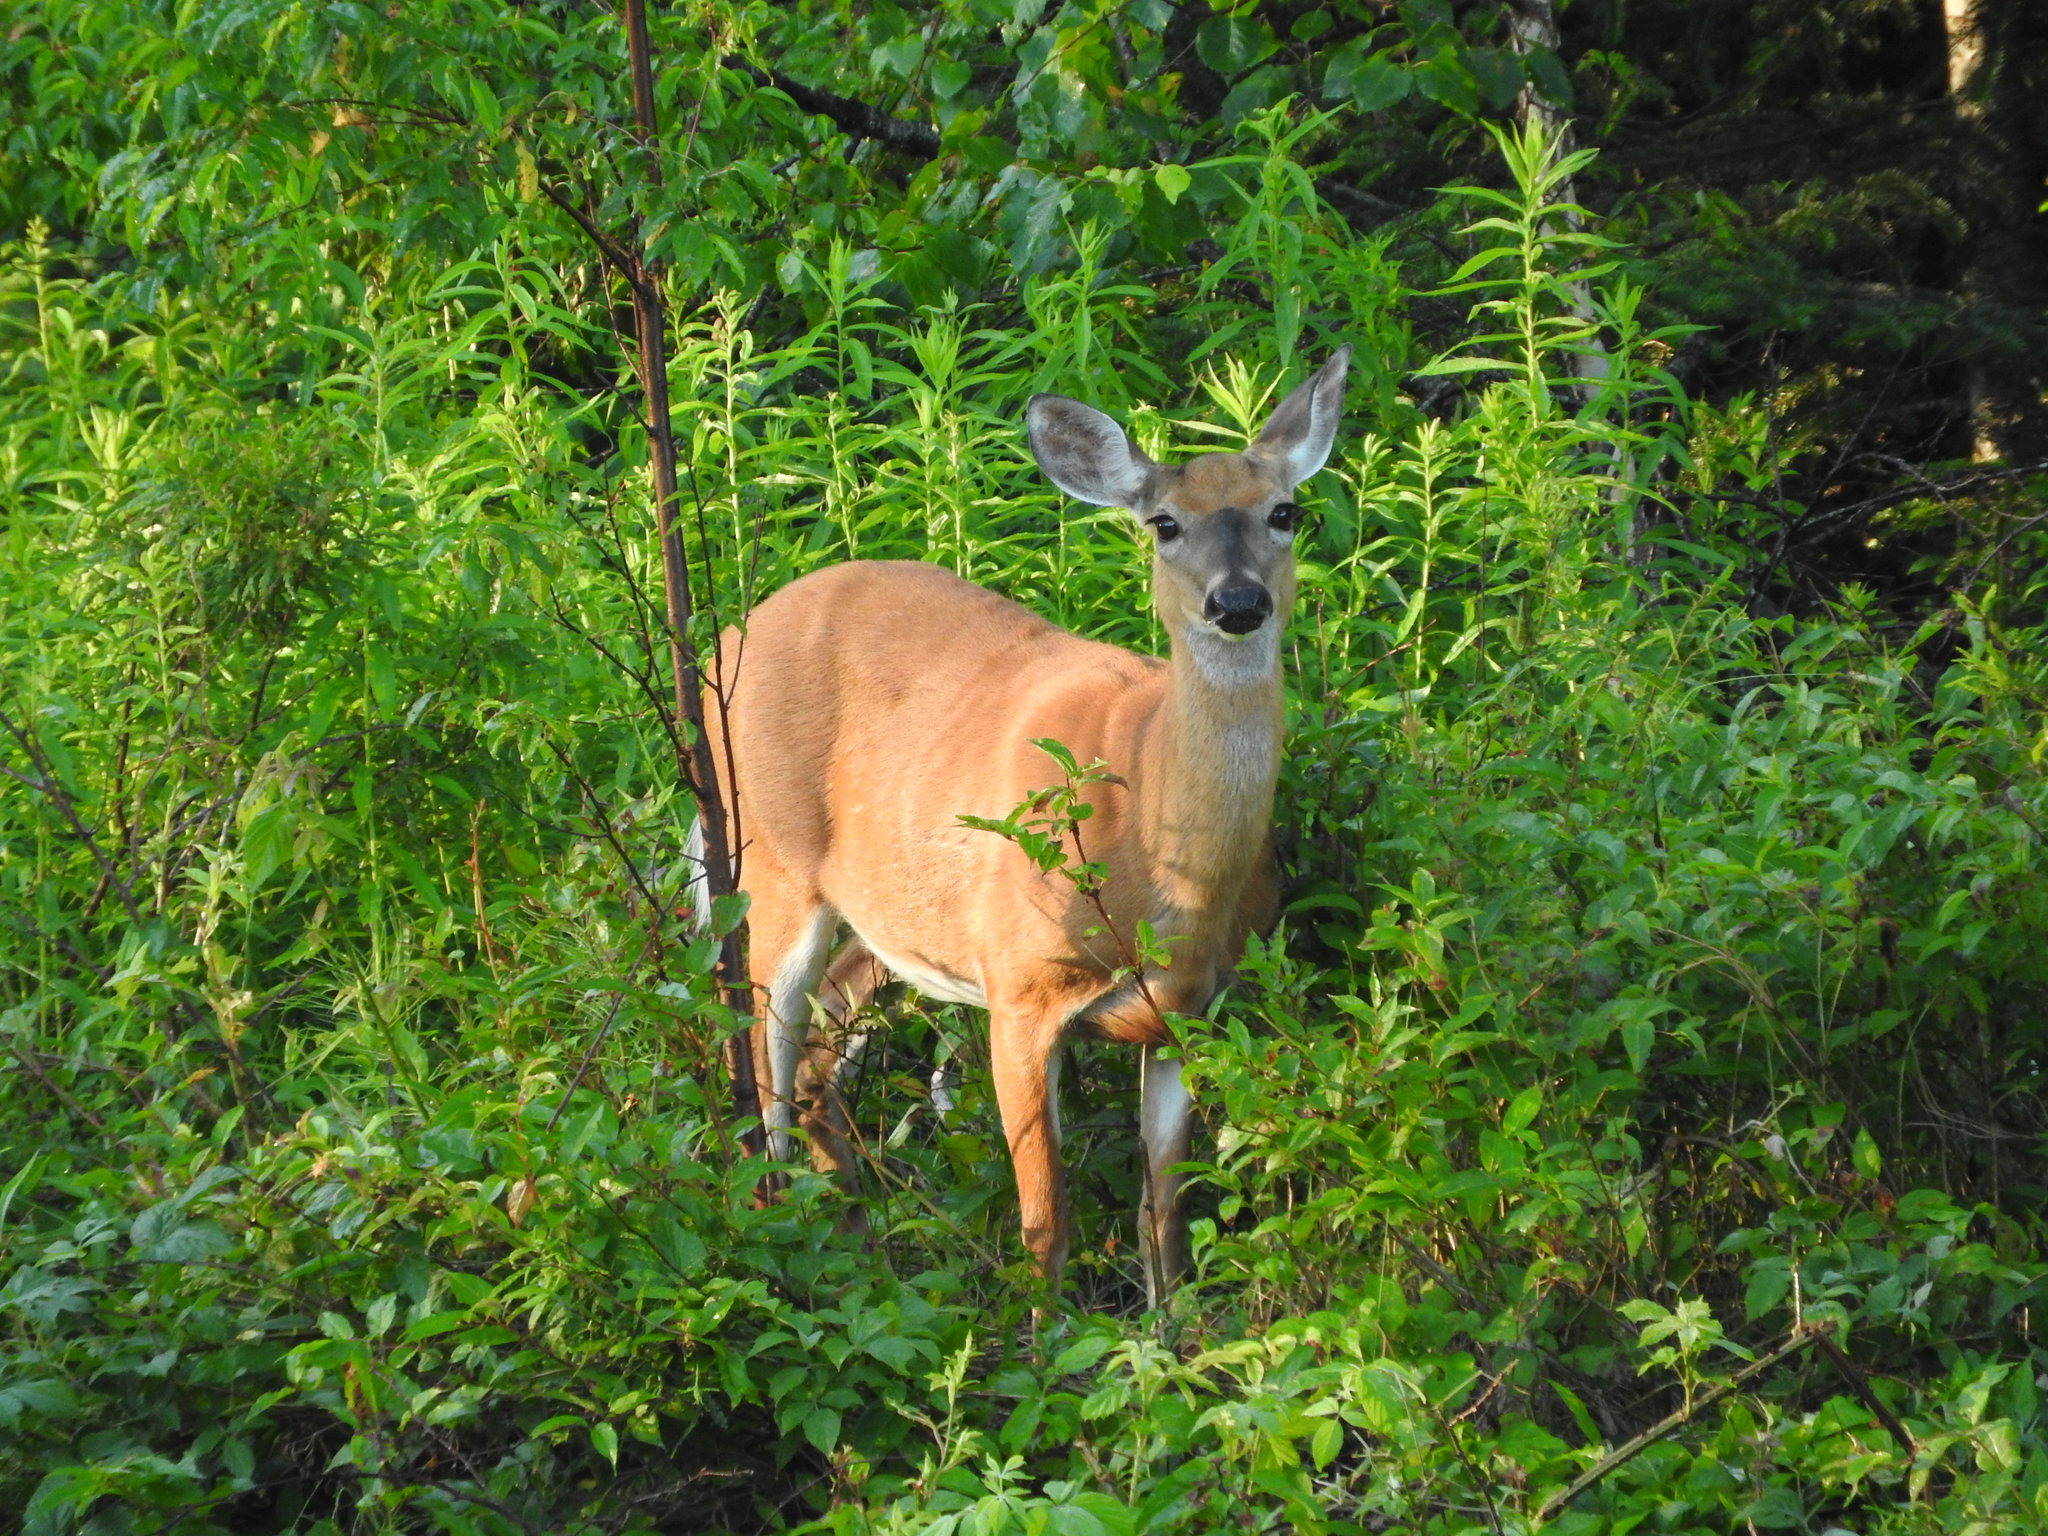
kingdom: Animalia
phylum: Chordata
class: Mammalia
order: Artiodactyla
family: Cervidae
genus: Odocoileus
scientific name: Odocoileus virginianus
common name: White-tailed deer
